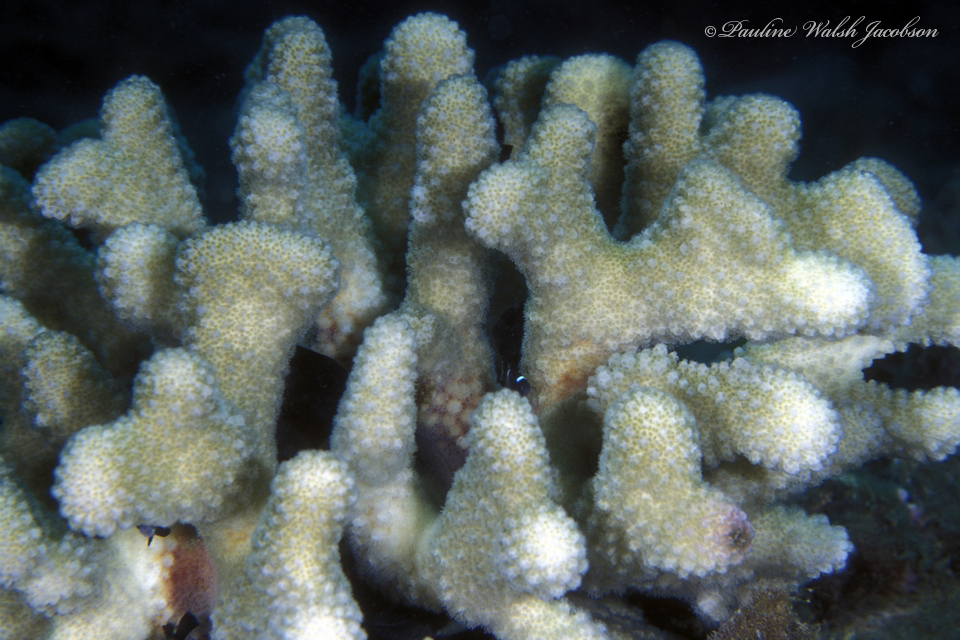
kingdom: Animalia
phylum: Cnidaria
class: Anthozoa
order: Scleractinia
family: Pocilloporidae
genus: Pocillopora
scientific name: Pocillopora verrucosa
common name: Cauliflower coral
